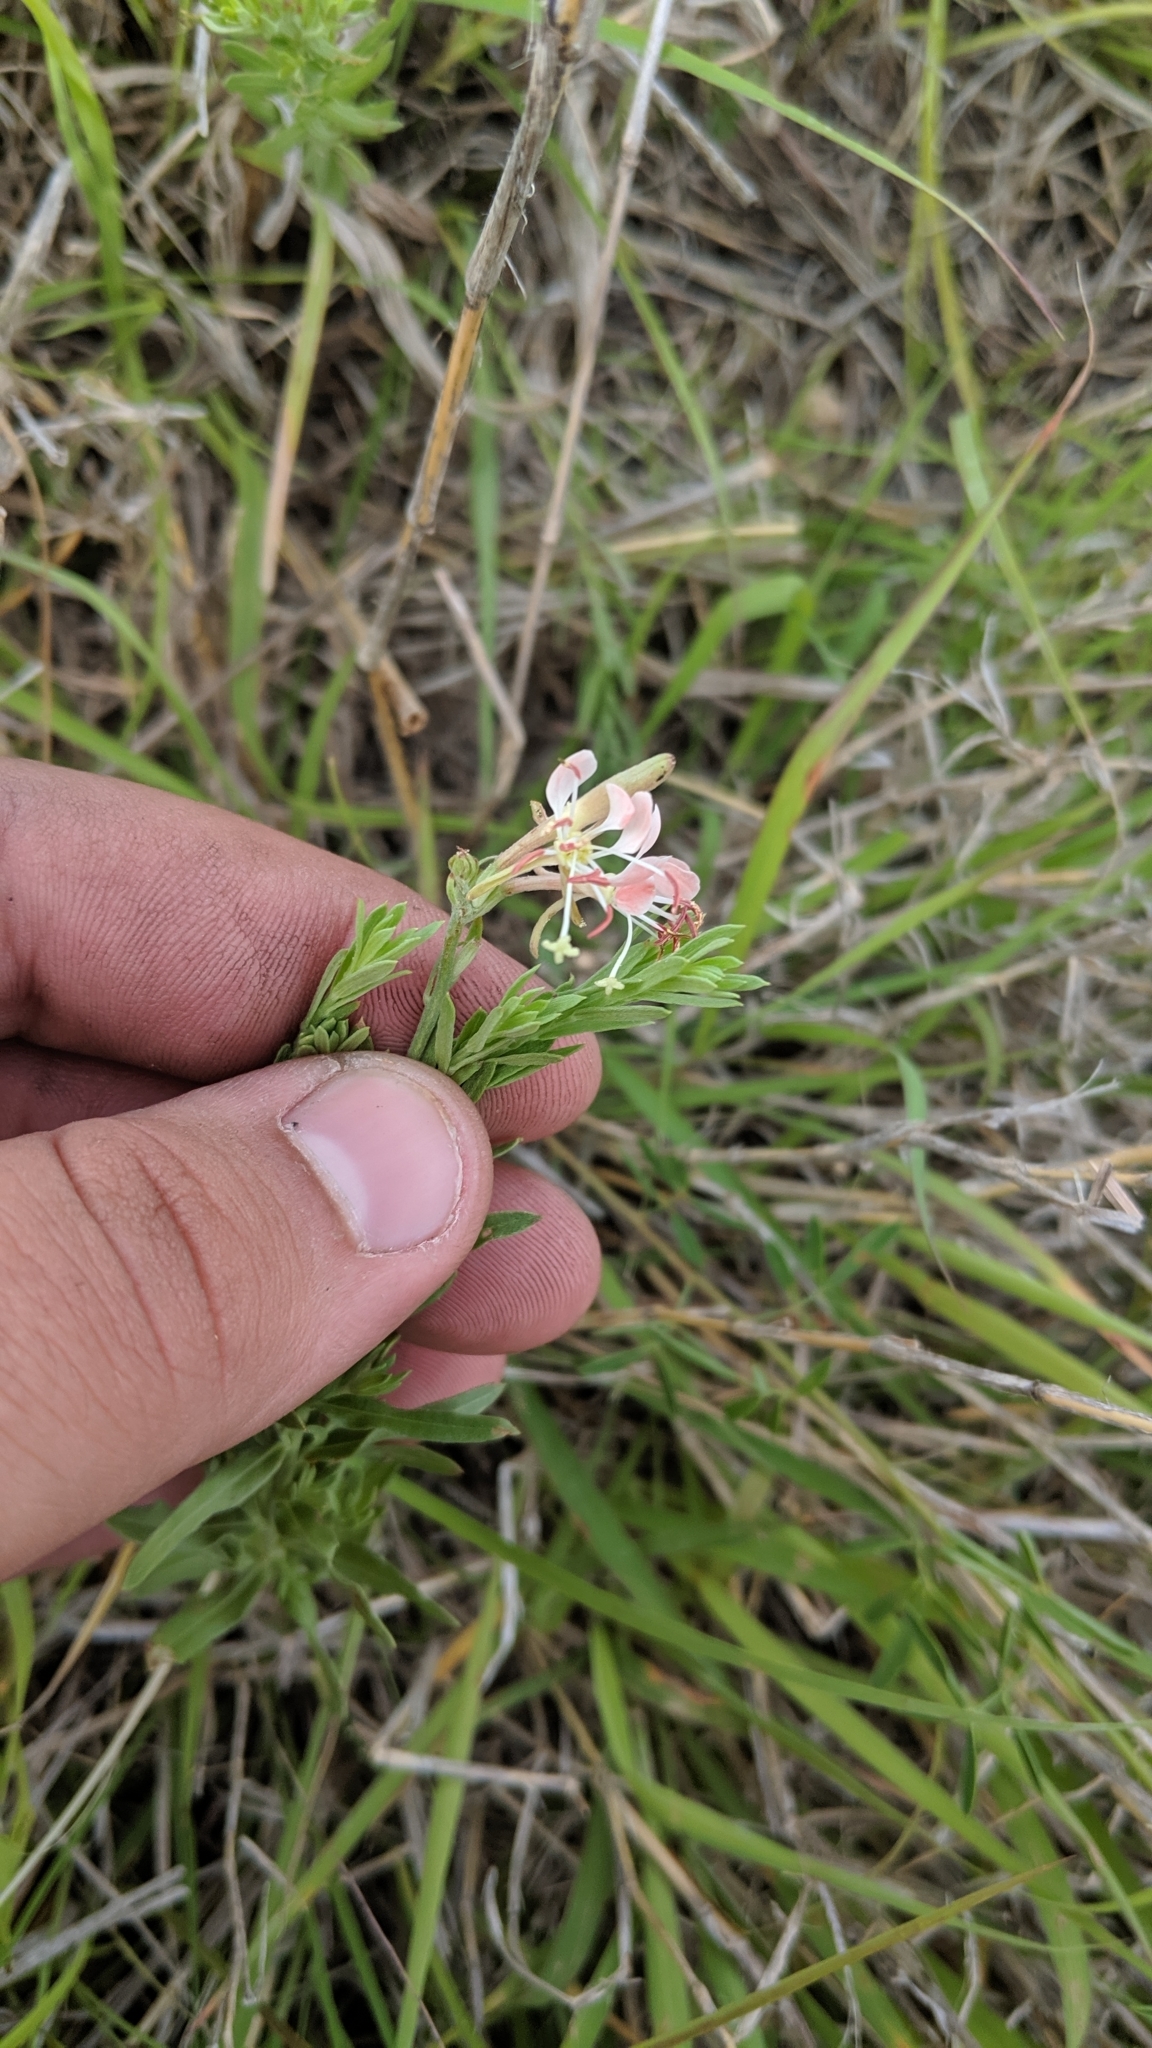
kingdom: Plantae
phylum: Tracheophyta
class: Magnoliopsida
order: Myrtales
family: Onagraceae
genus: Oenothera
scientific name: Oenothera suffrutescens
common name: Scarlet beeblossom
